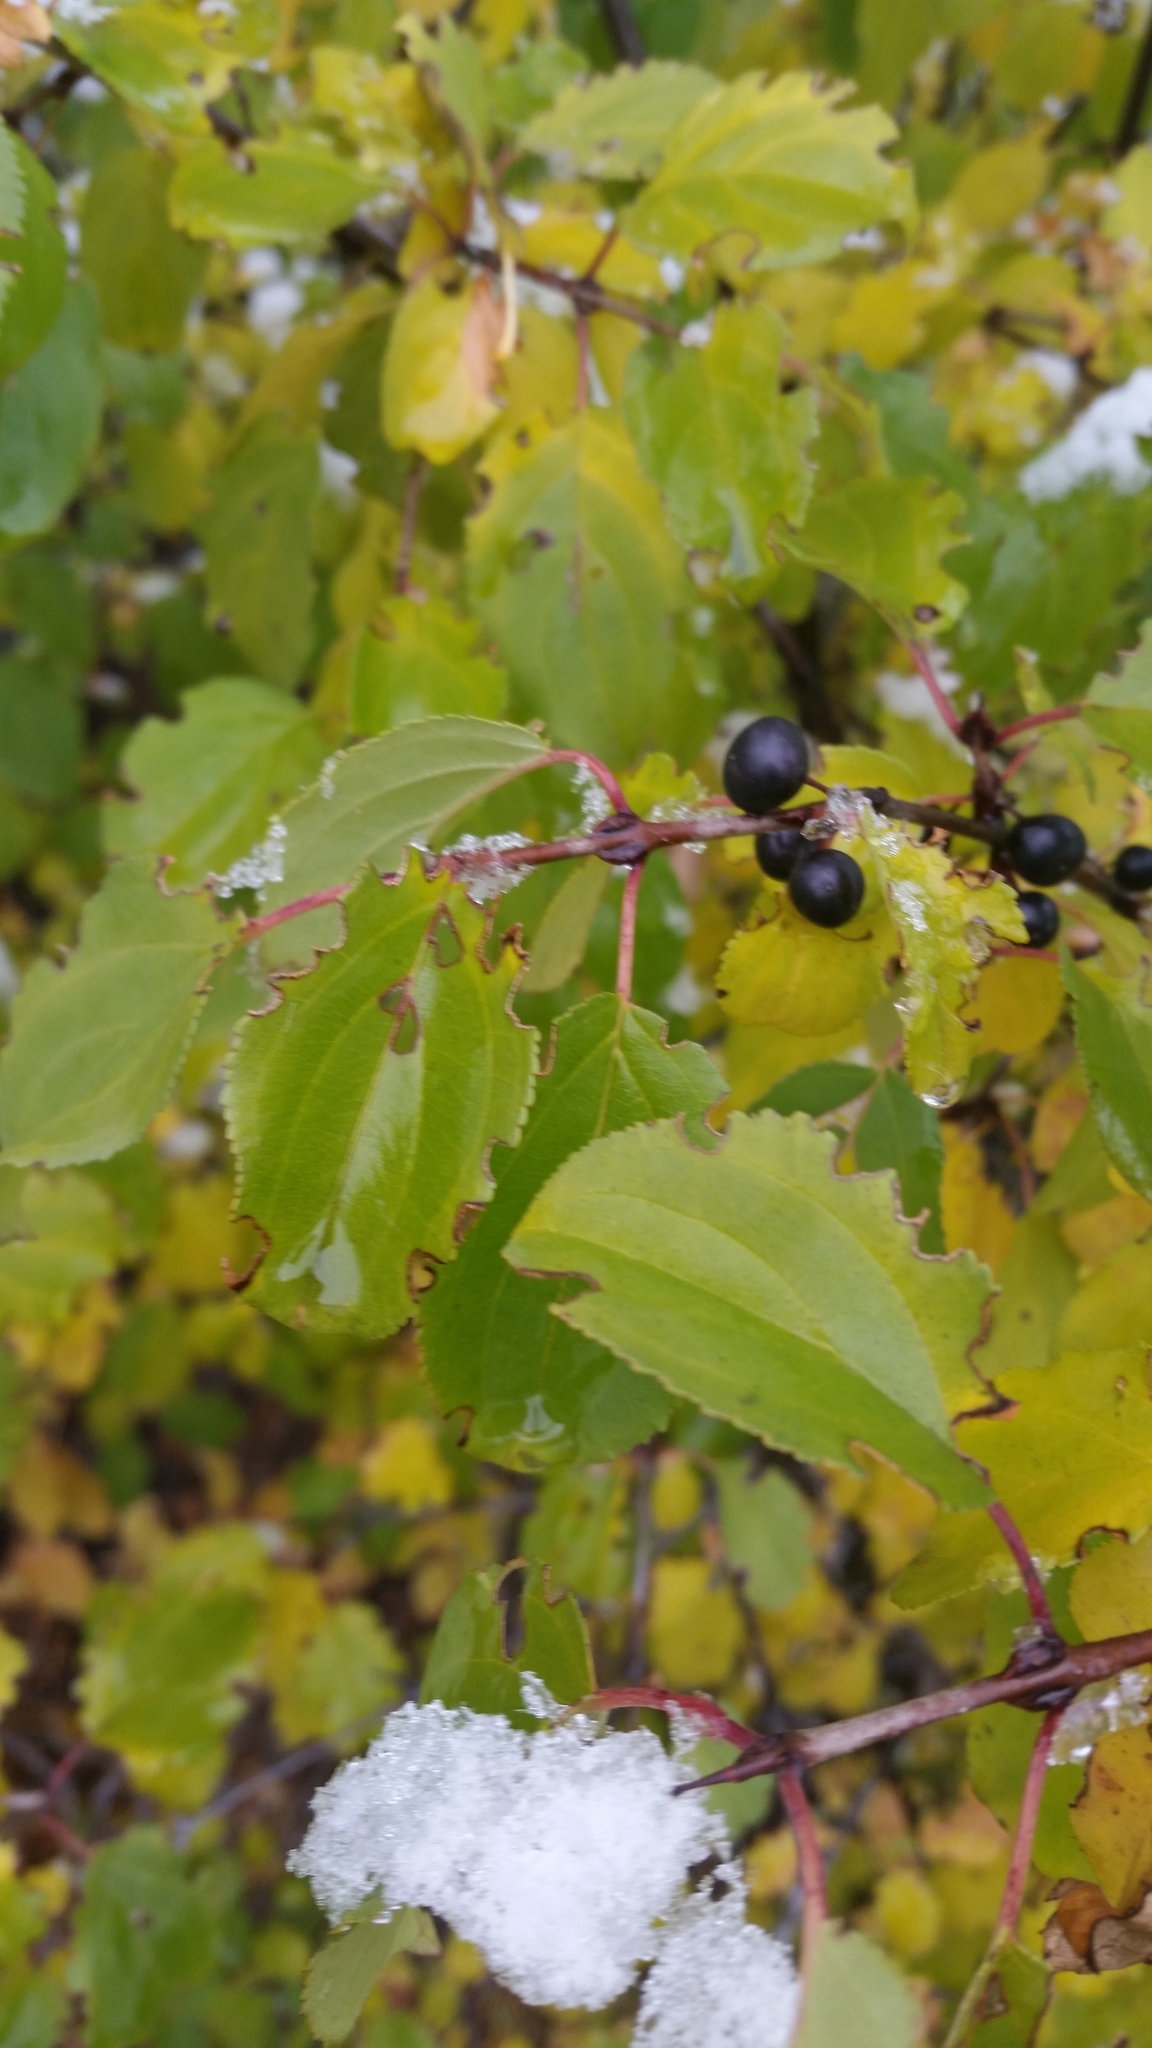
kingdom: Plantae
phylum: Tracheophyta
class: Magnoliopsida
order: Rosales
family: Rhamnaceae
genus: Rhamnus
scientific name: Rhamnus cathartica
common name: Common buckthorn
